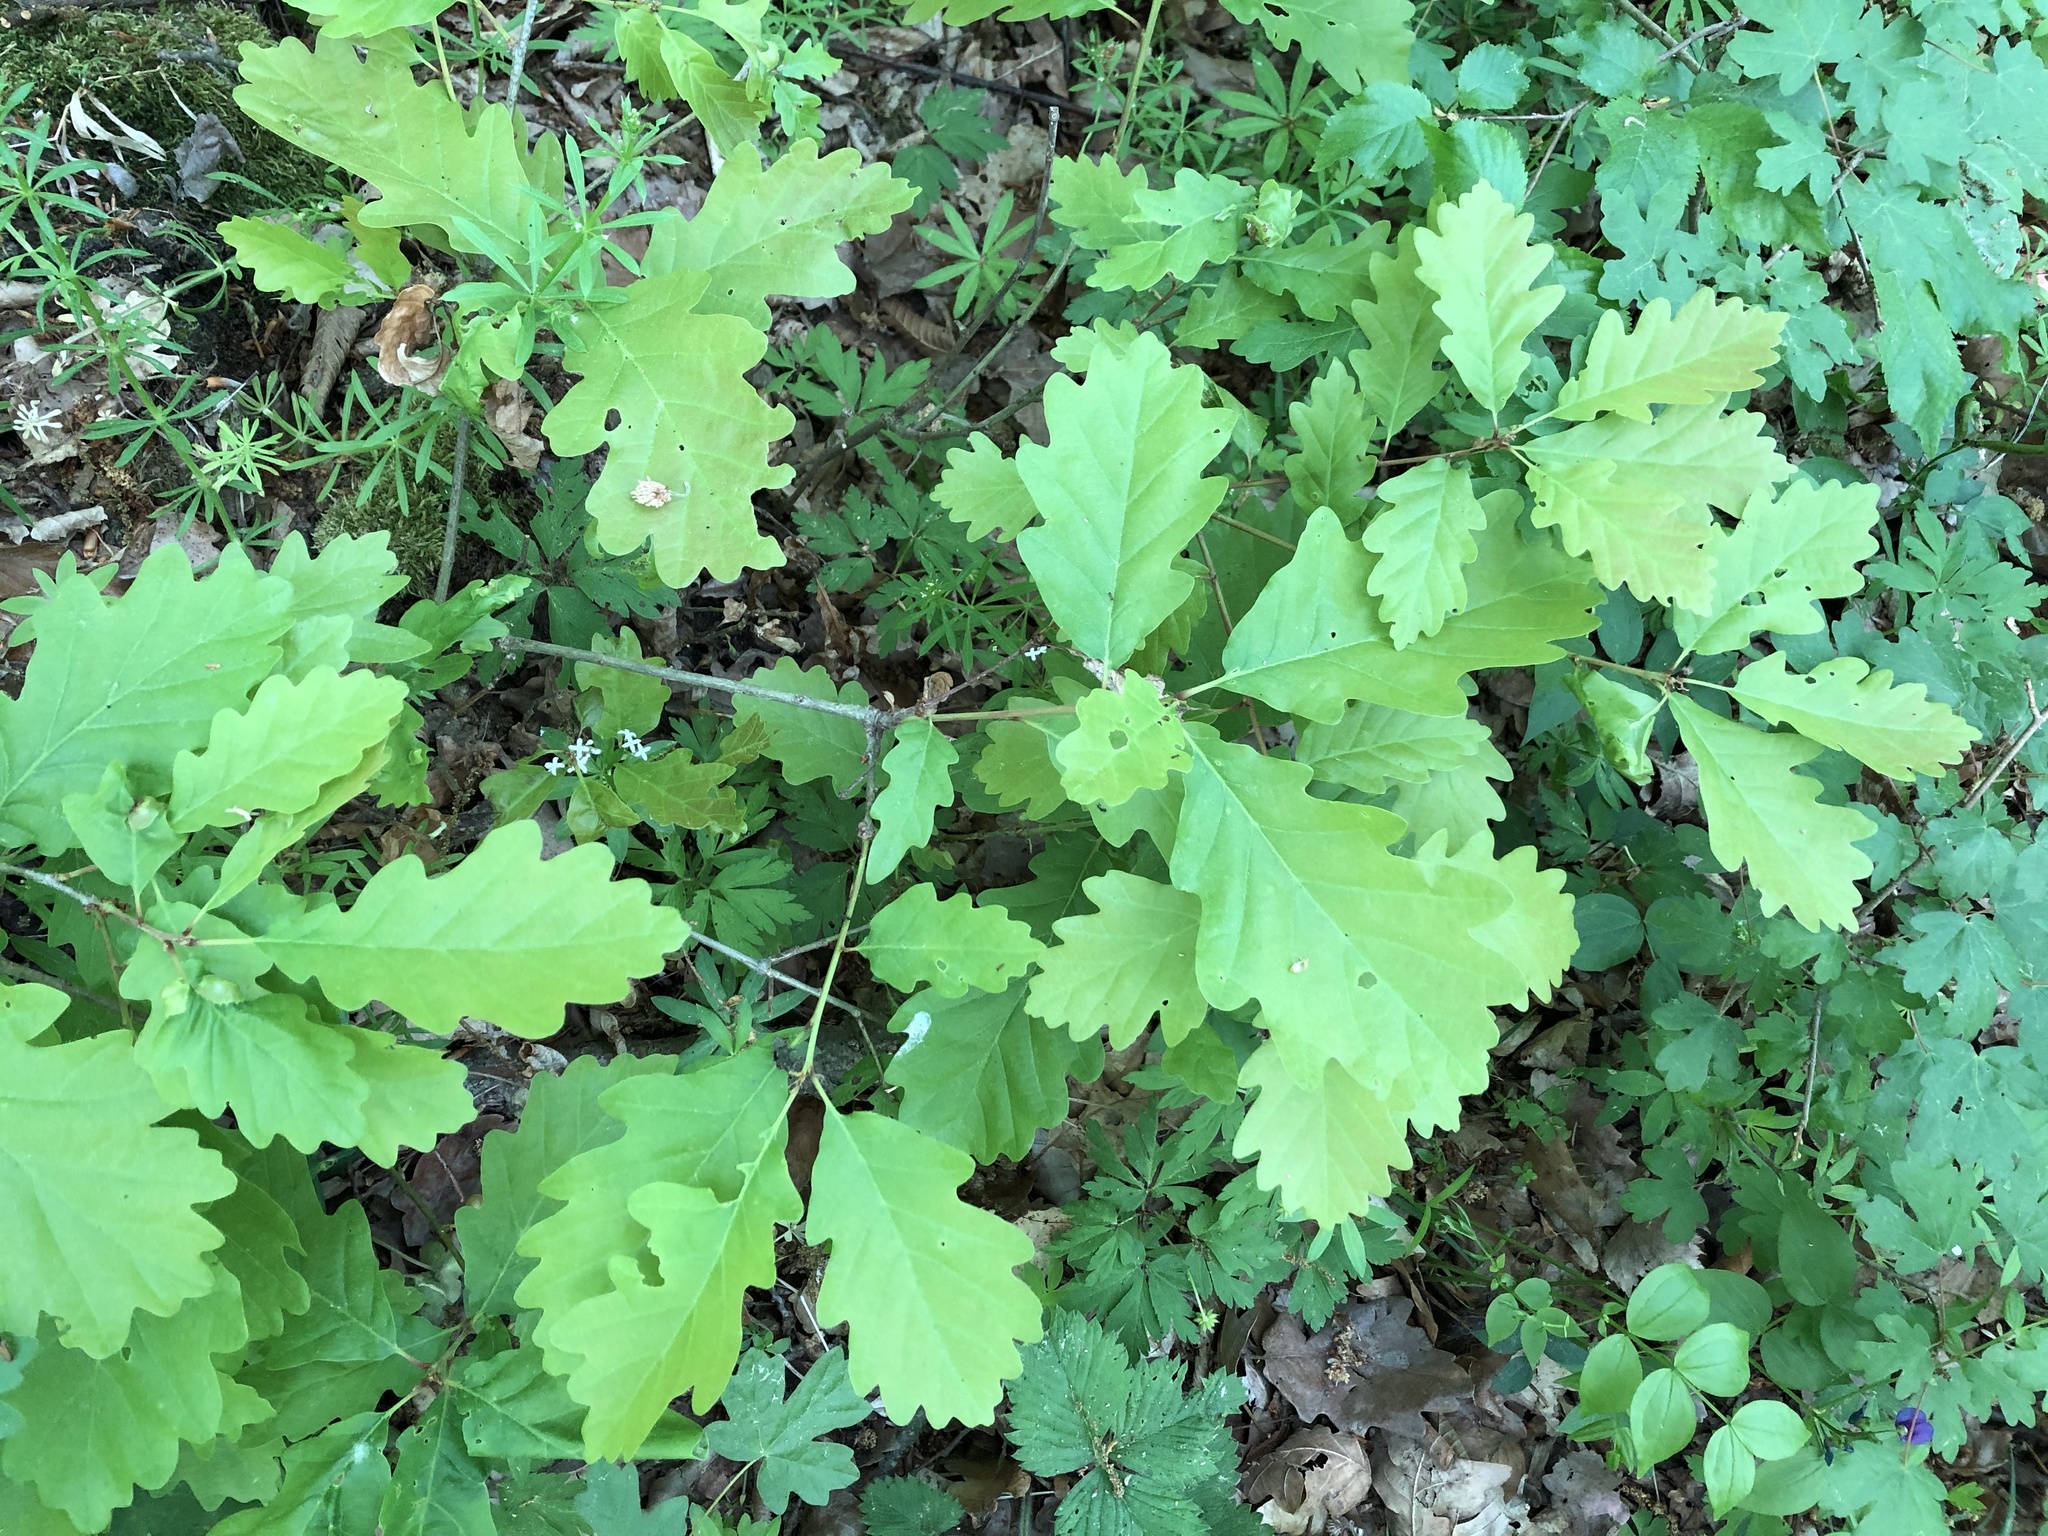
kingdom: Plantae
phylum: Tracheophyta
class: Magnoliopsida
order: Fagales
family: Fagaceae
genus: Quercus
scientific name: Quercus petraea
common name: Sessile oak
